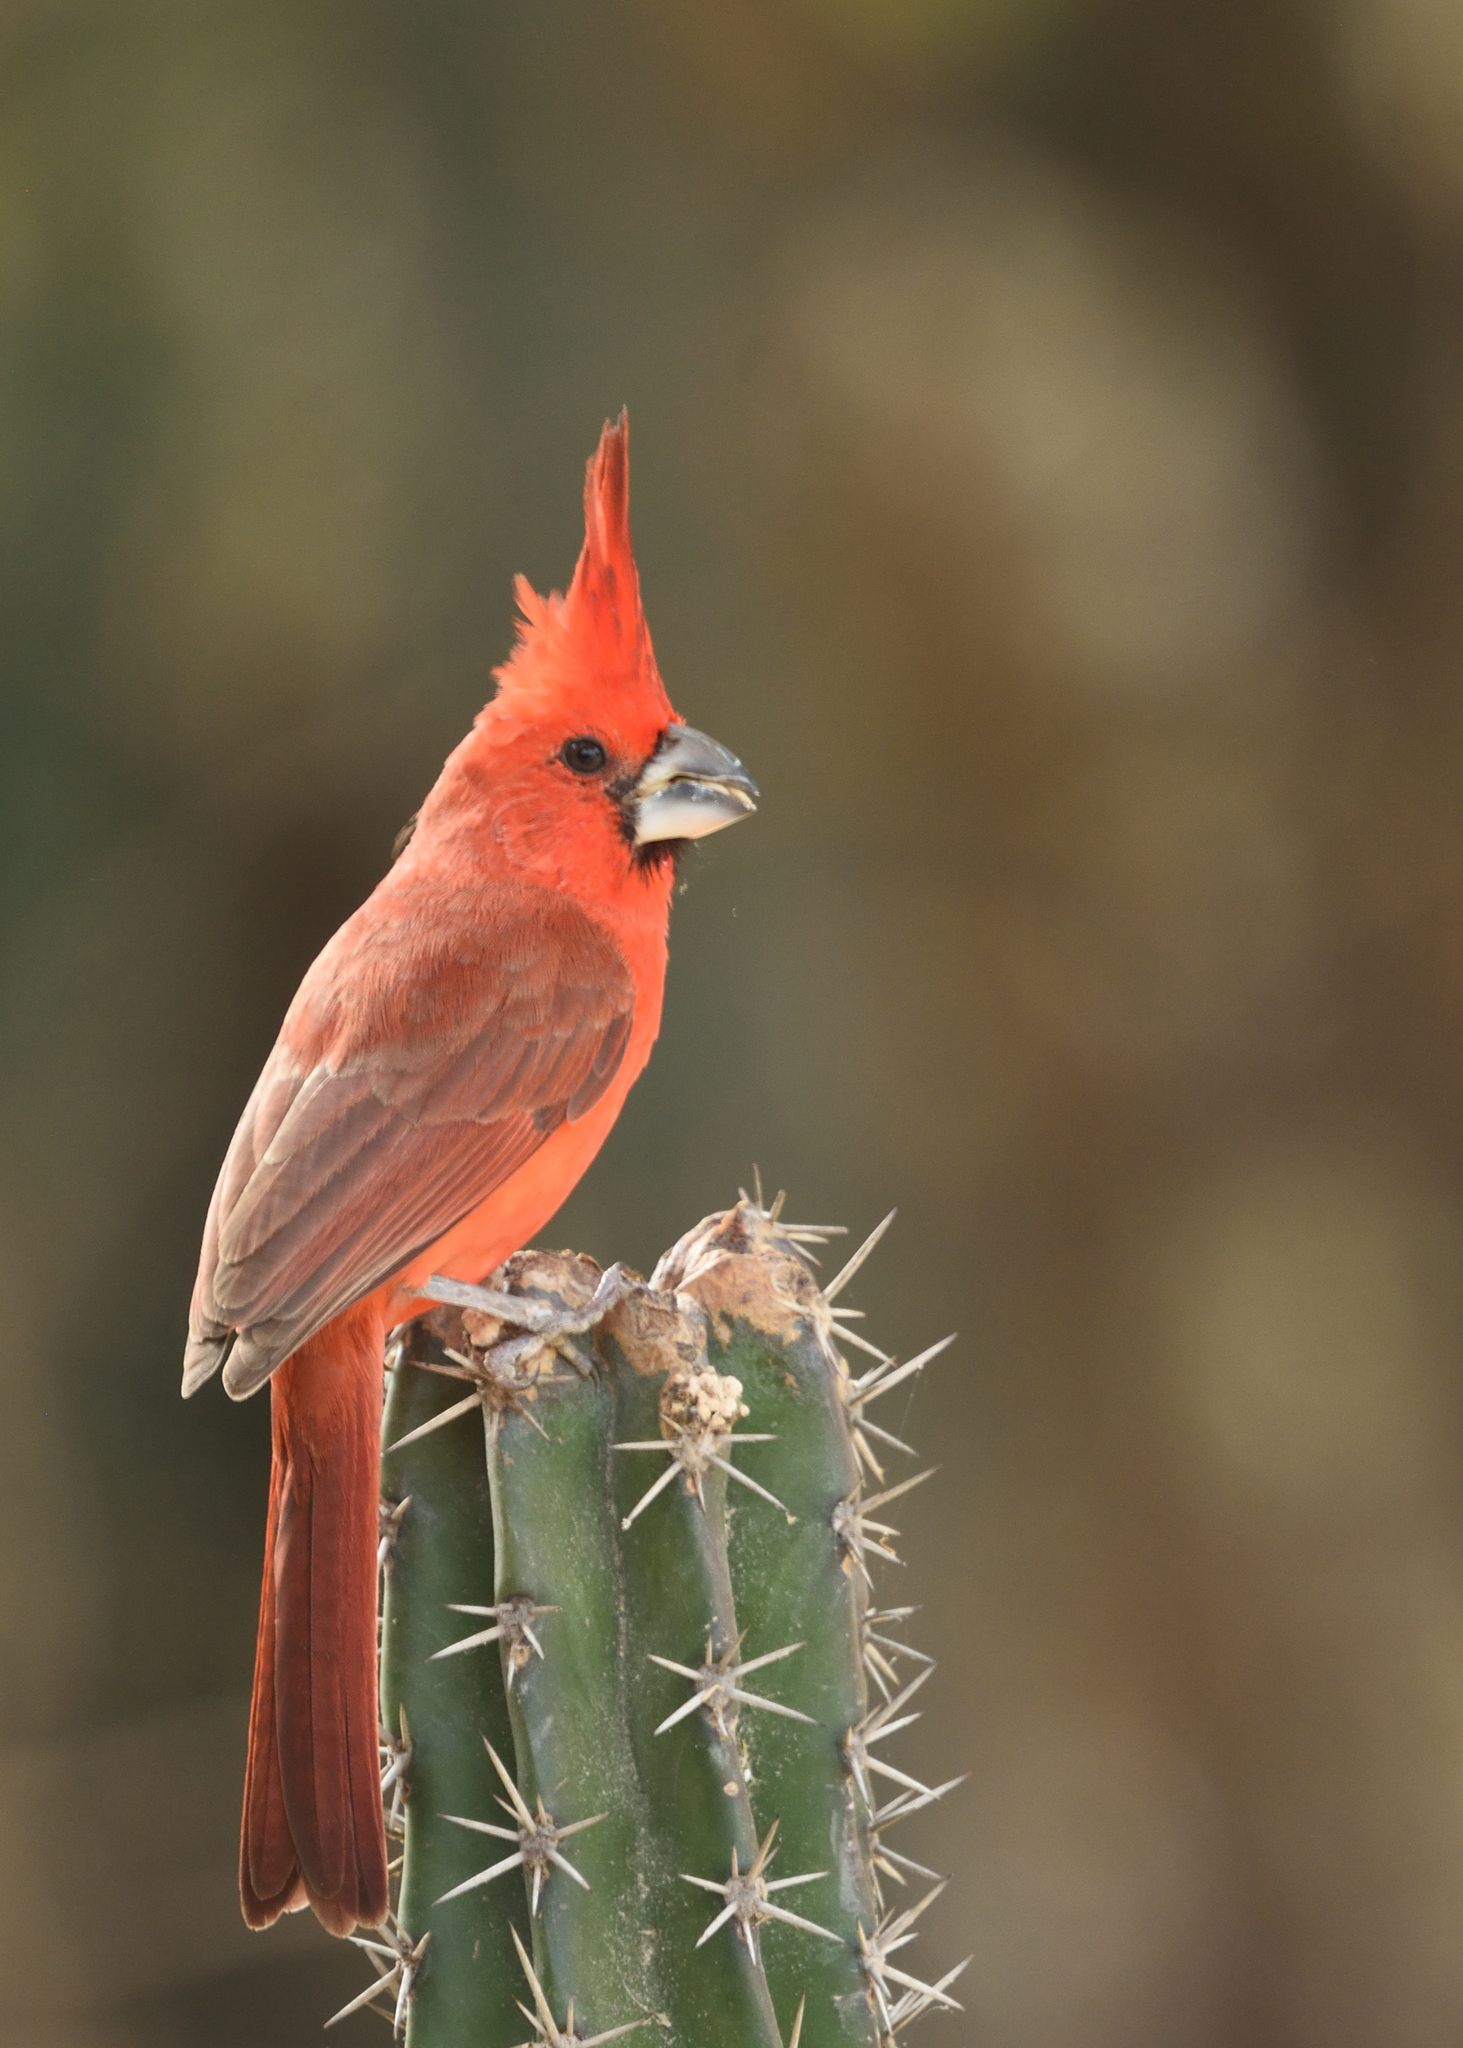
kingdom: Animalia
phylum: Chordata
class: Aves
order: Passeriformes
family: Cardinalidae
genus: Cardinalis
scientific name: Cardinalis phoeniceus
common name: Vermilion cardinal
